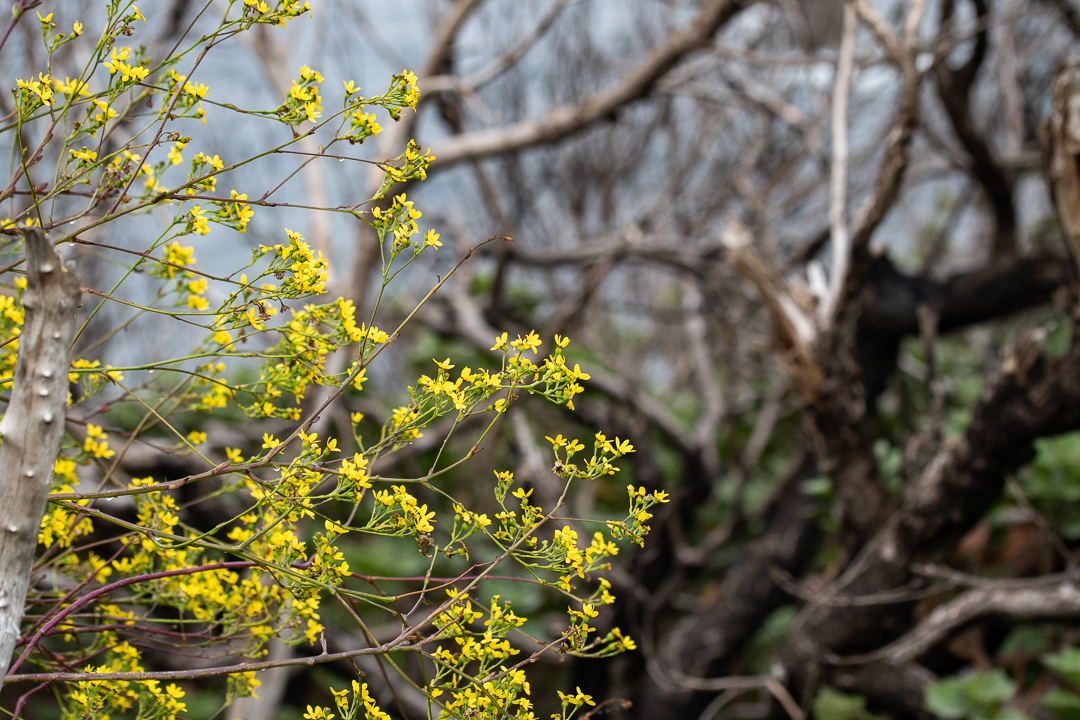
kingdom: Plantae
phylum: Tracheophyta
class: Magnoliopsida
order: Asterales
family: Asteraceae
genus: Othonna
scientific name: Othonna quinquedentata
